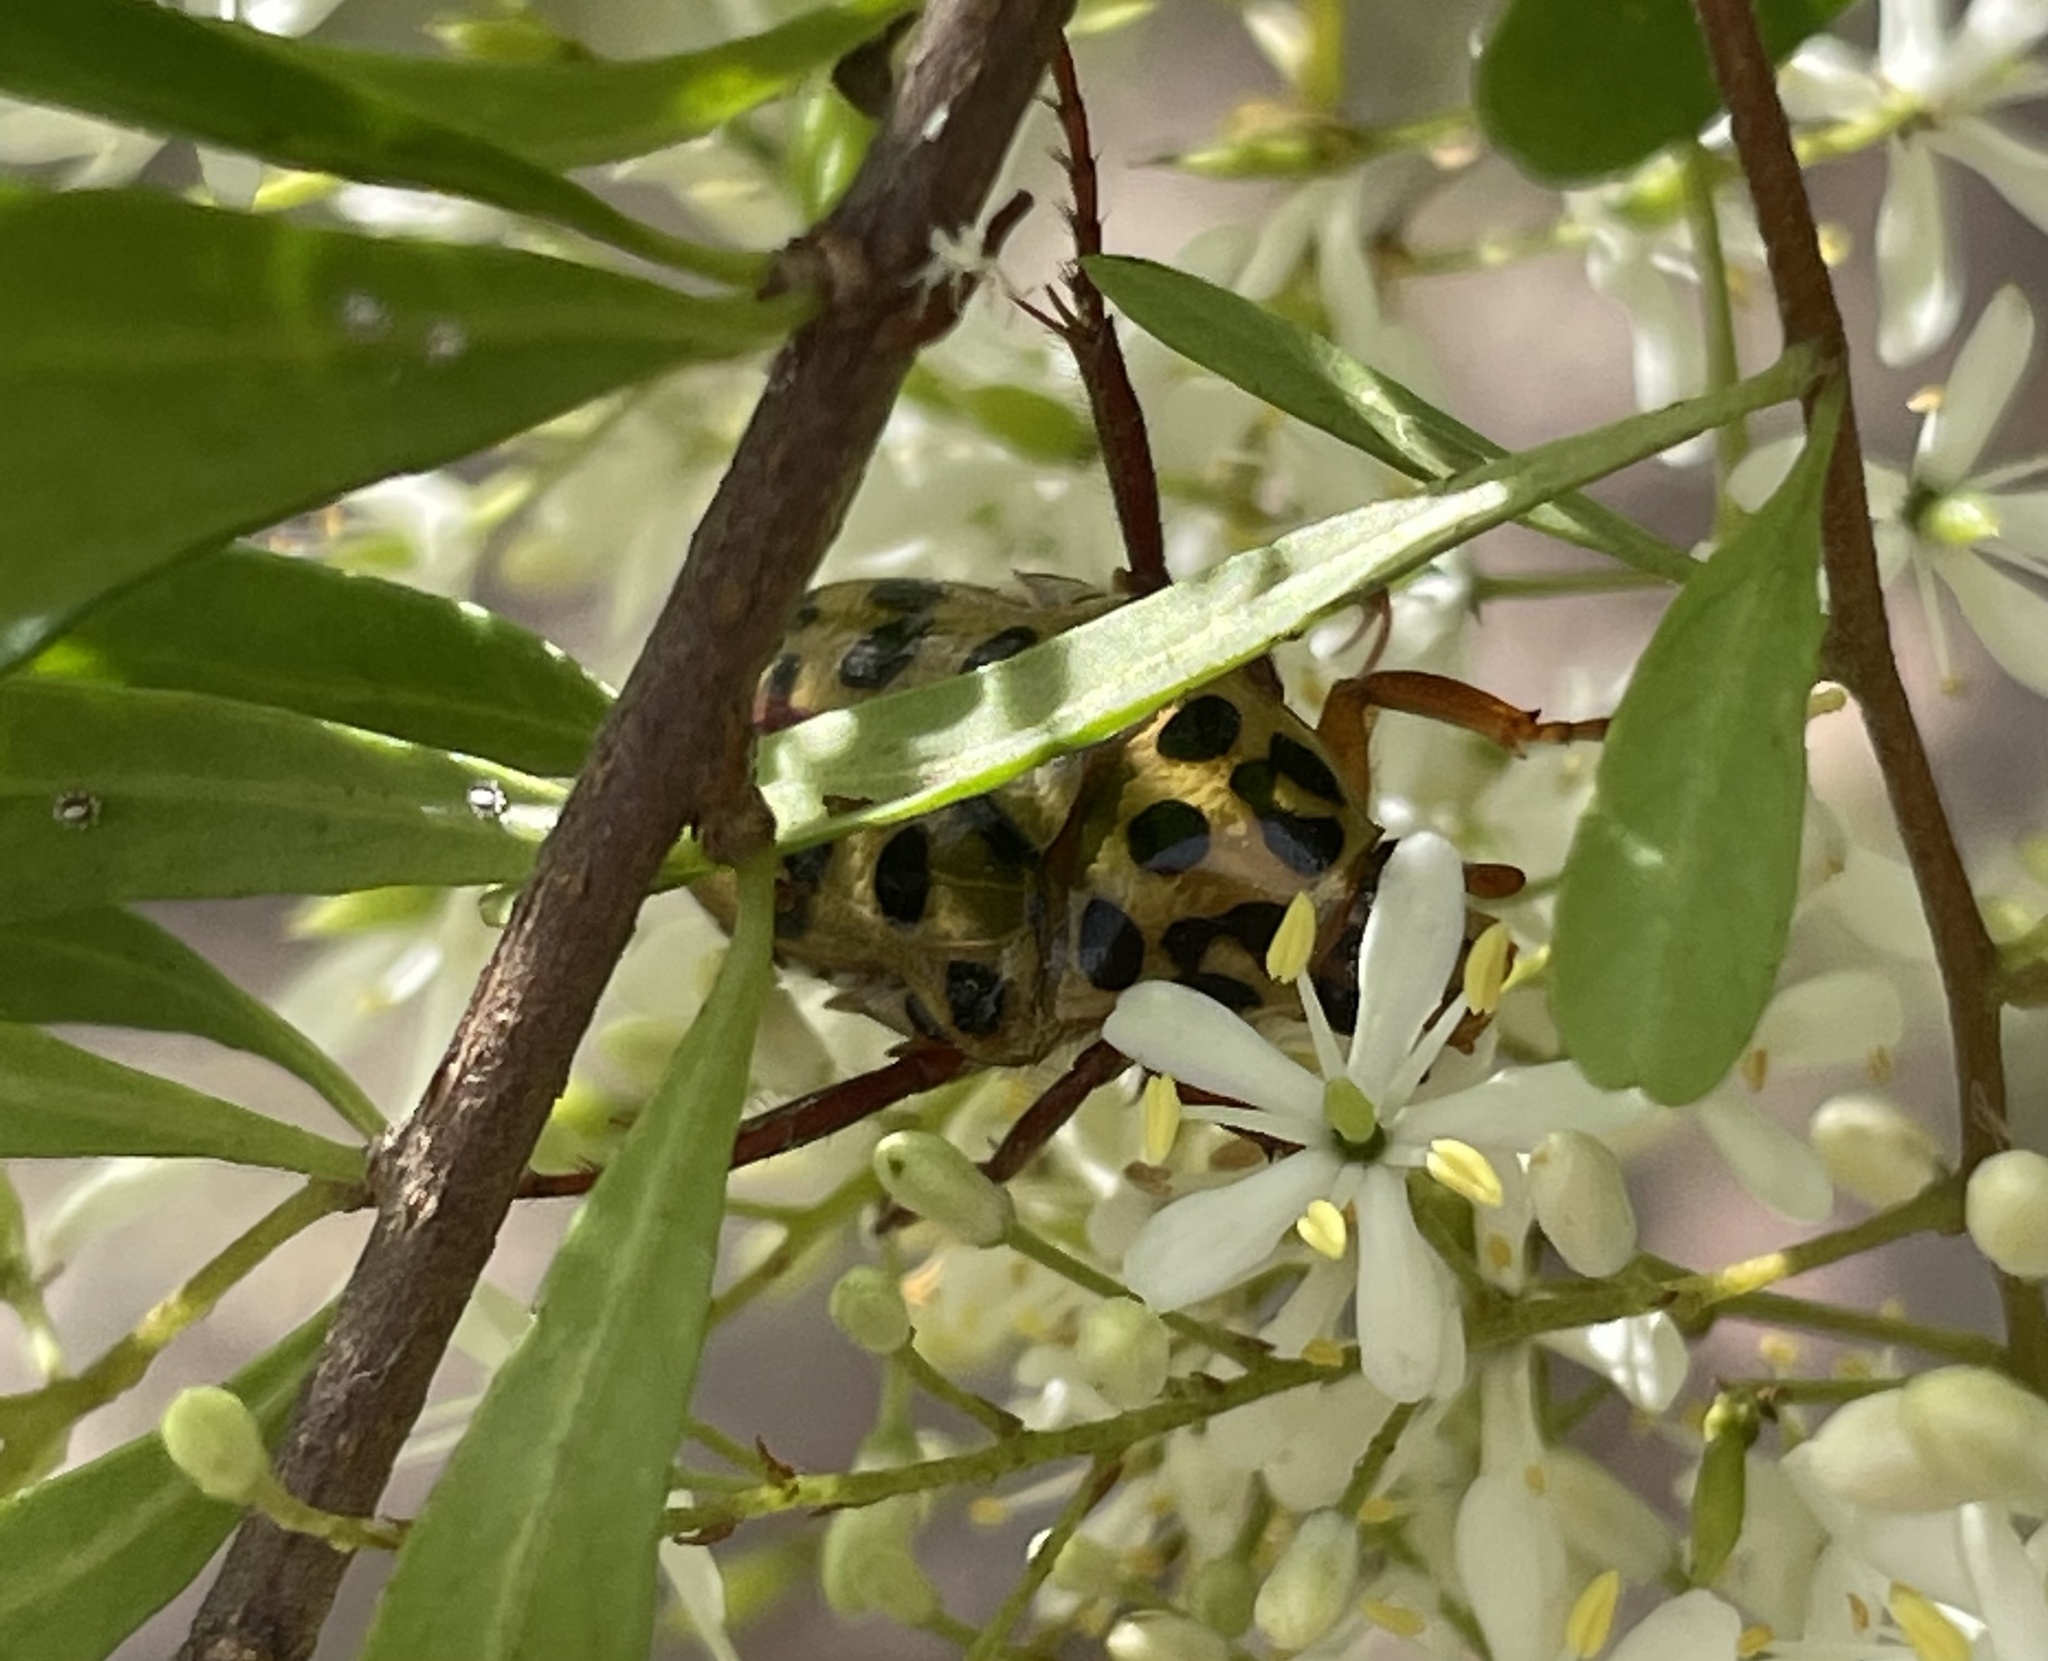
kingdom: Animalia
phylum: Arthropoda
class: Insecta
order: Coleoptera
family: Scarabaeidae
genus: Neorrhina
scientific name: Neorrhina punctatum
